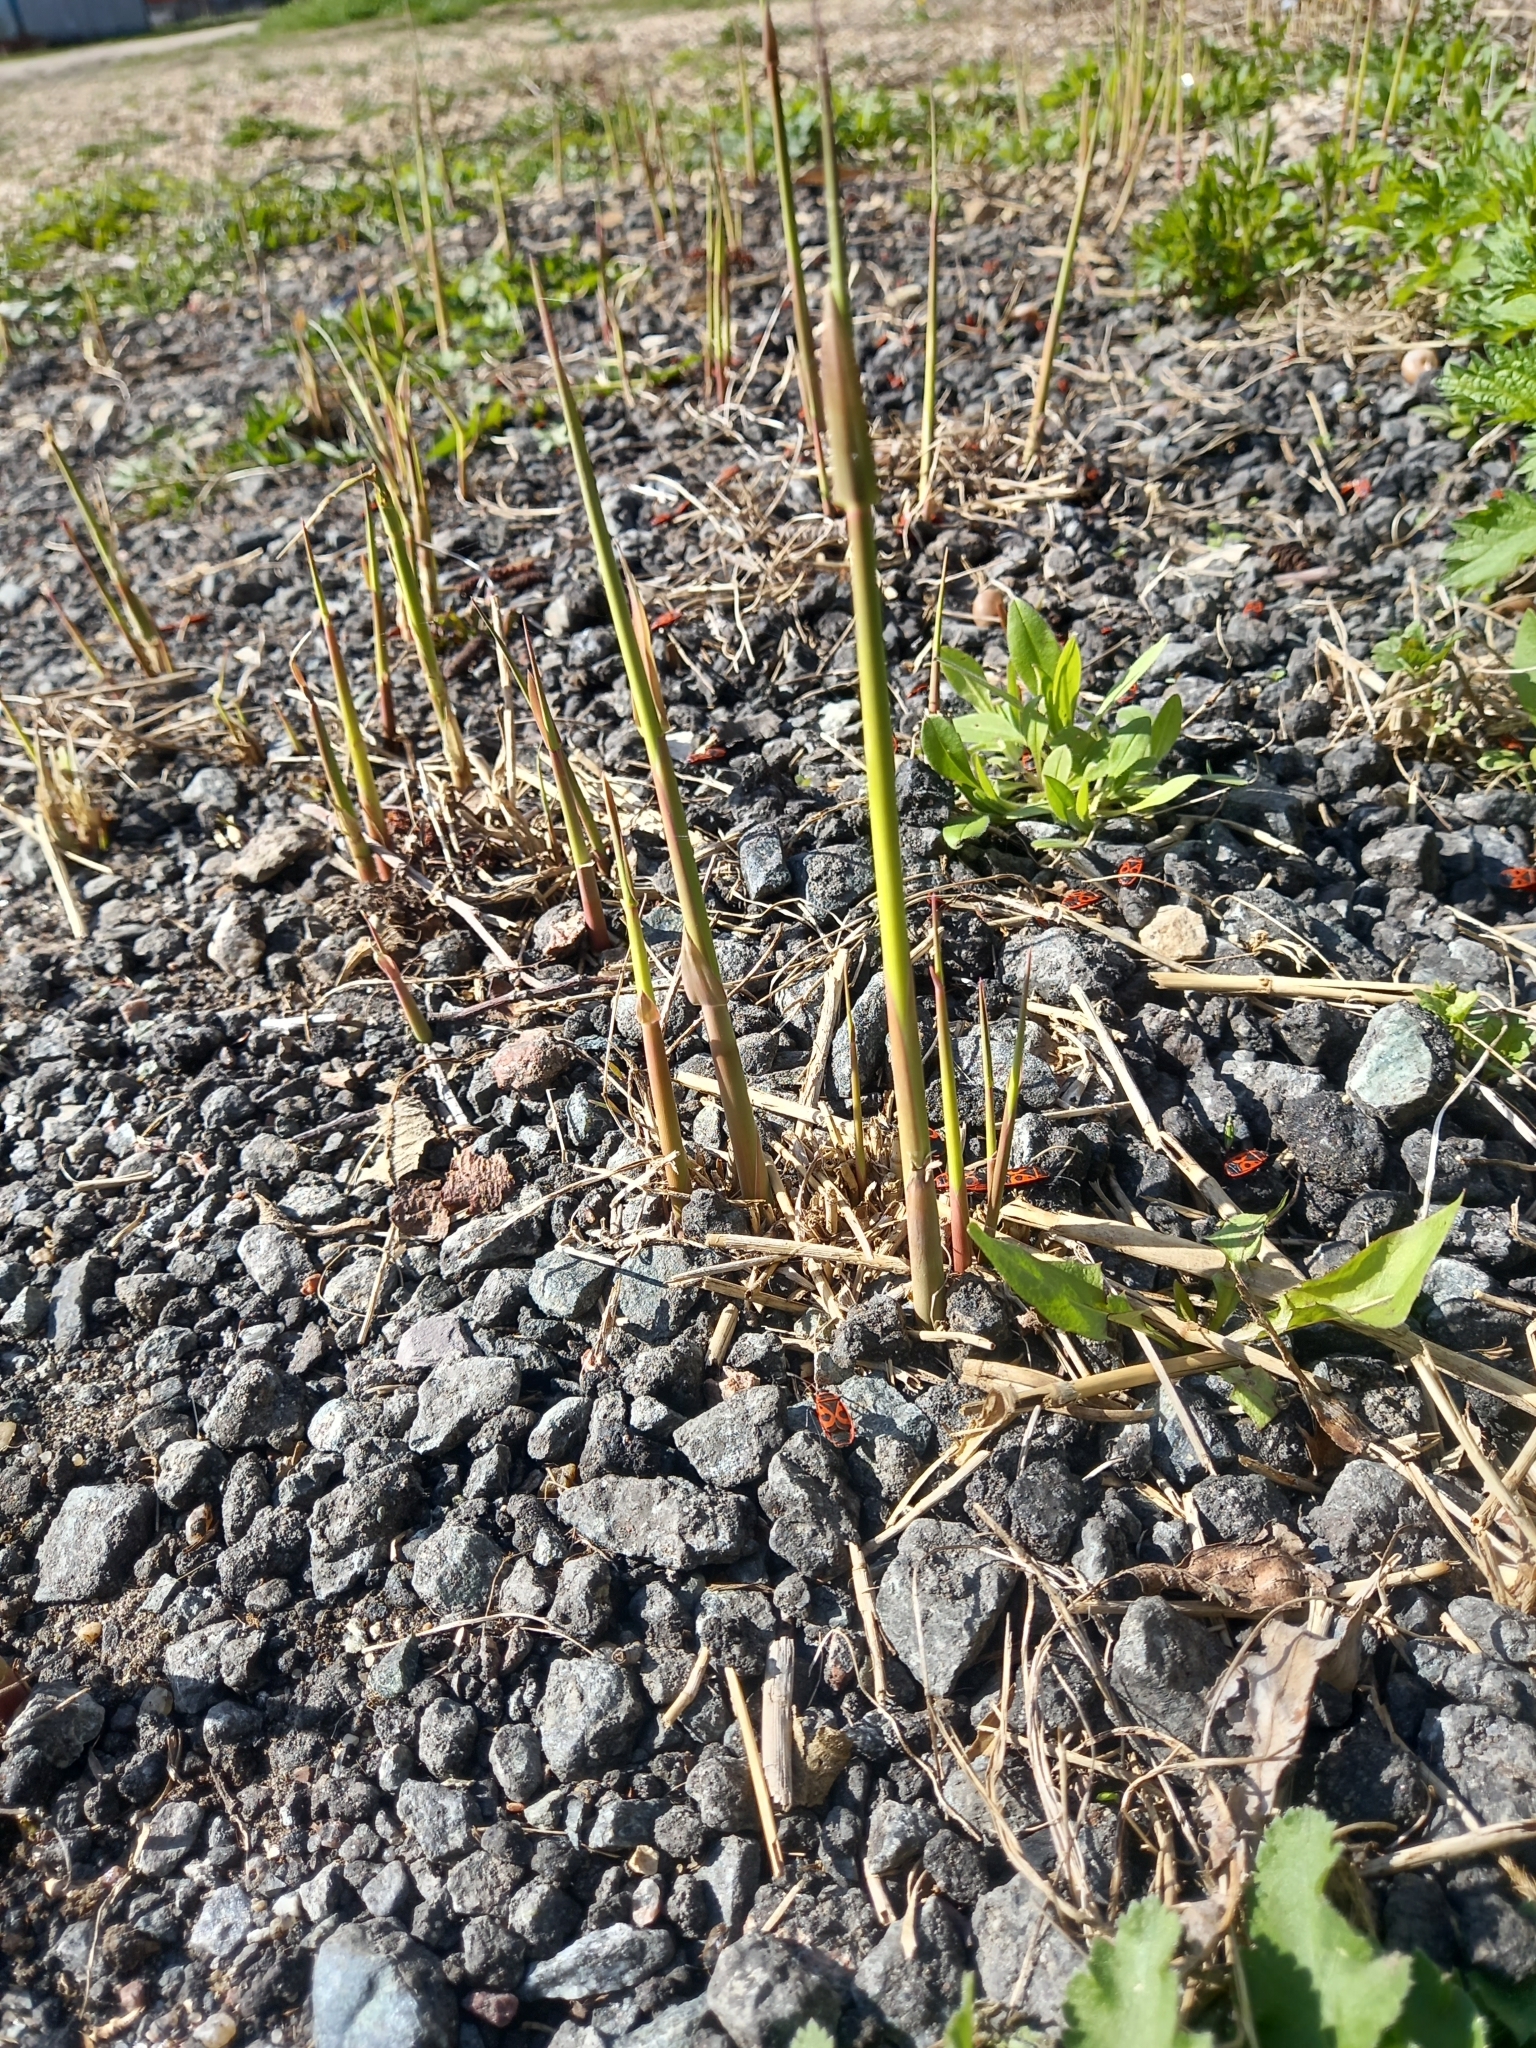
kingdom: Plantae
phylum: Tracheophyta
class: Liliopsida
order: Asparagales
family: Asparagaceae
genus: Convallaria
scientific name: Convallaria majalis
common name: Lily-of-the-valley
